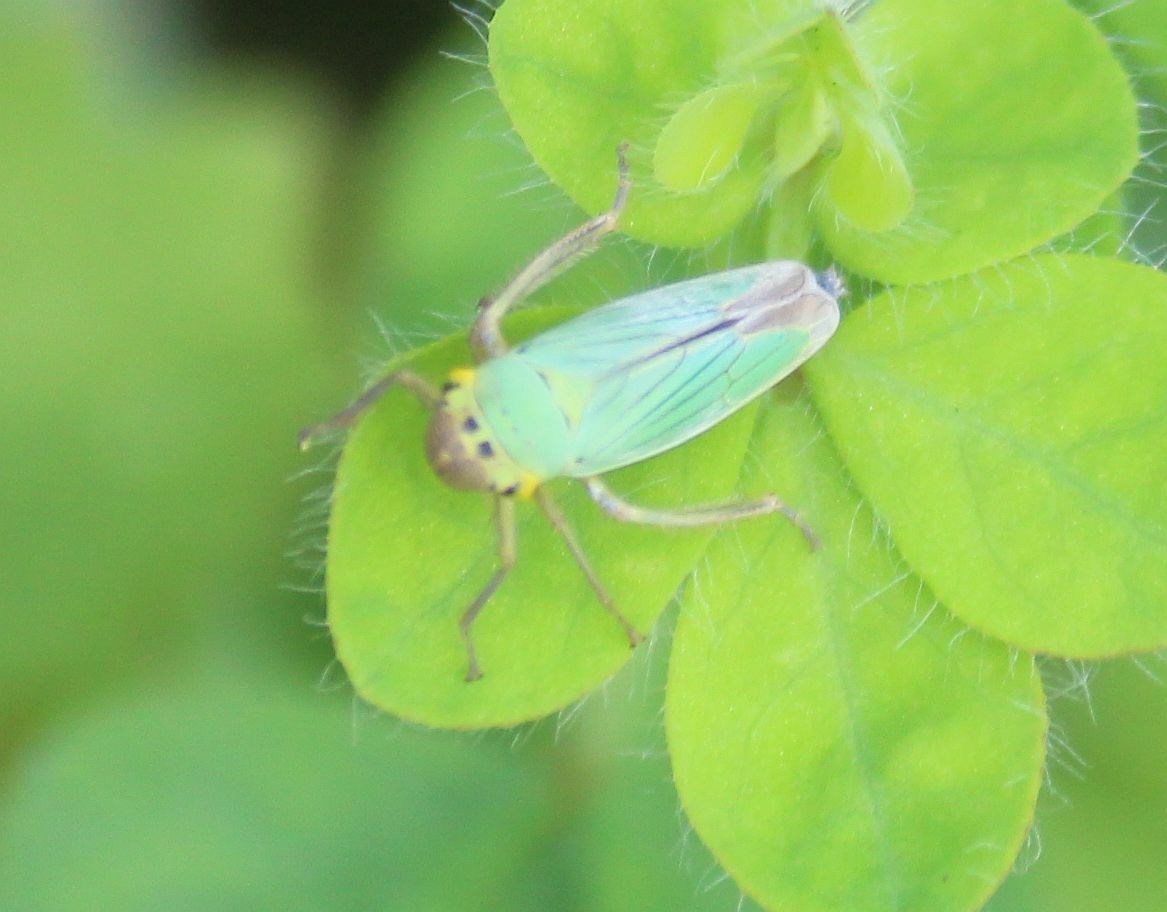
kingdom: Animalia
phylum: Arthropoda
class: Insecta
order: Hemiptera
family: Cicadellidae
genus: Cicadella
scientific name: Cicadella viridis
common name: Leafhopper
